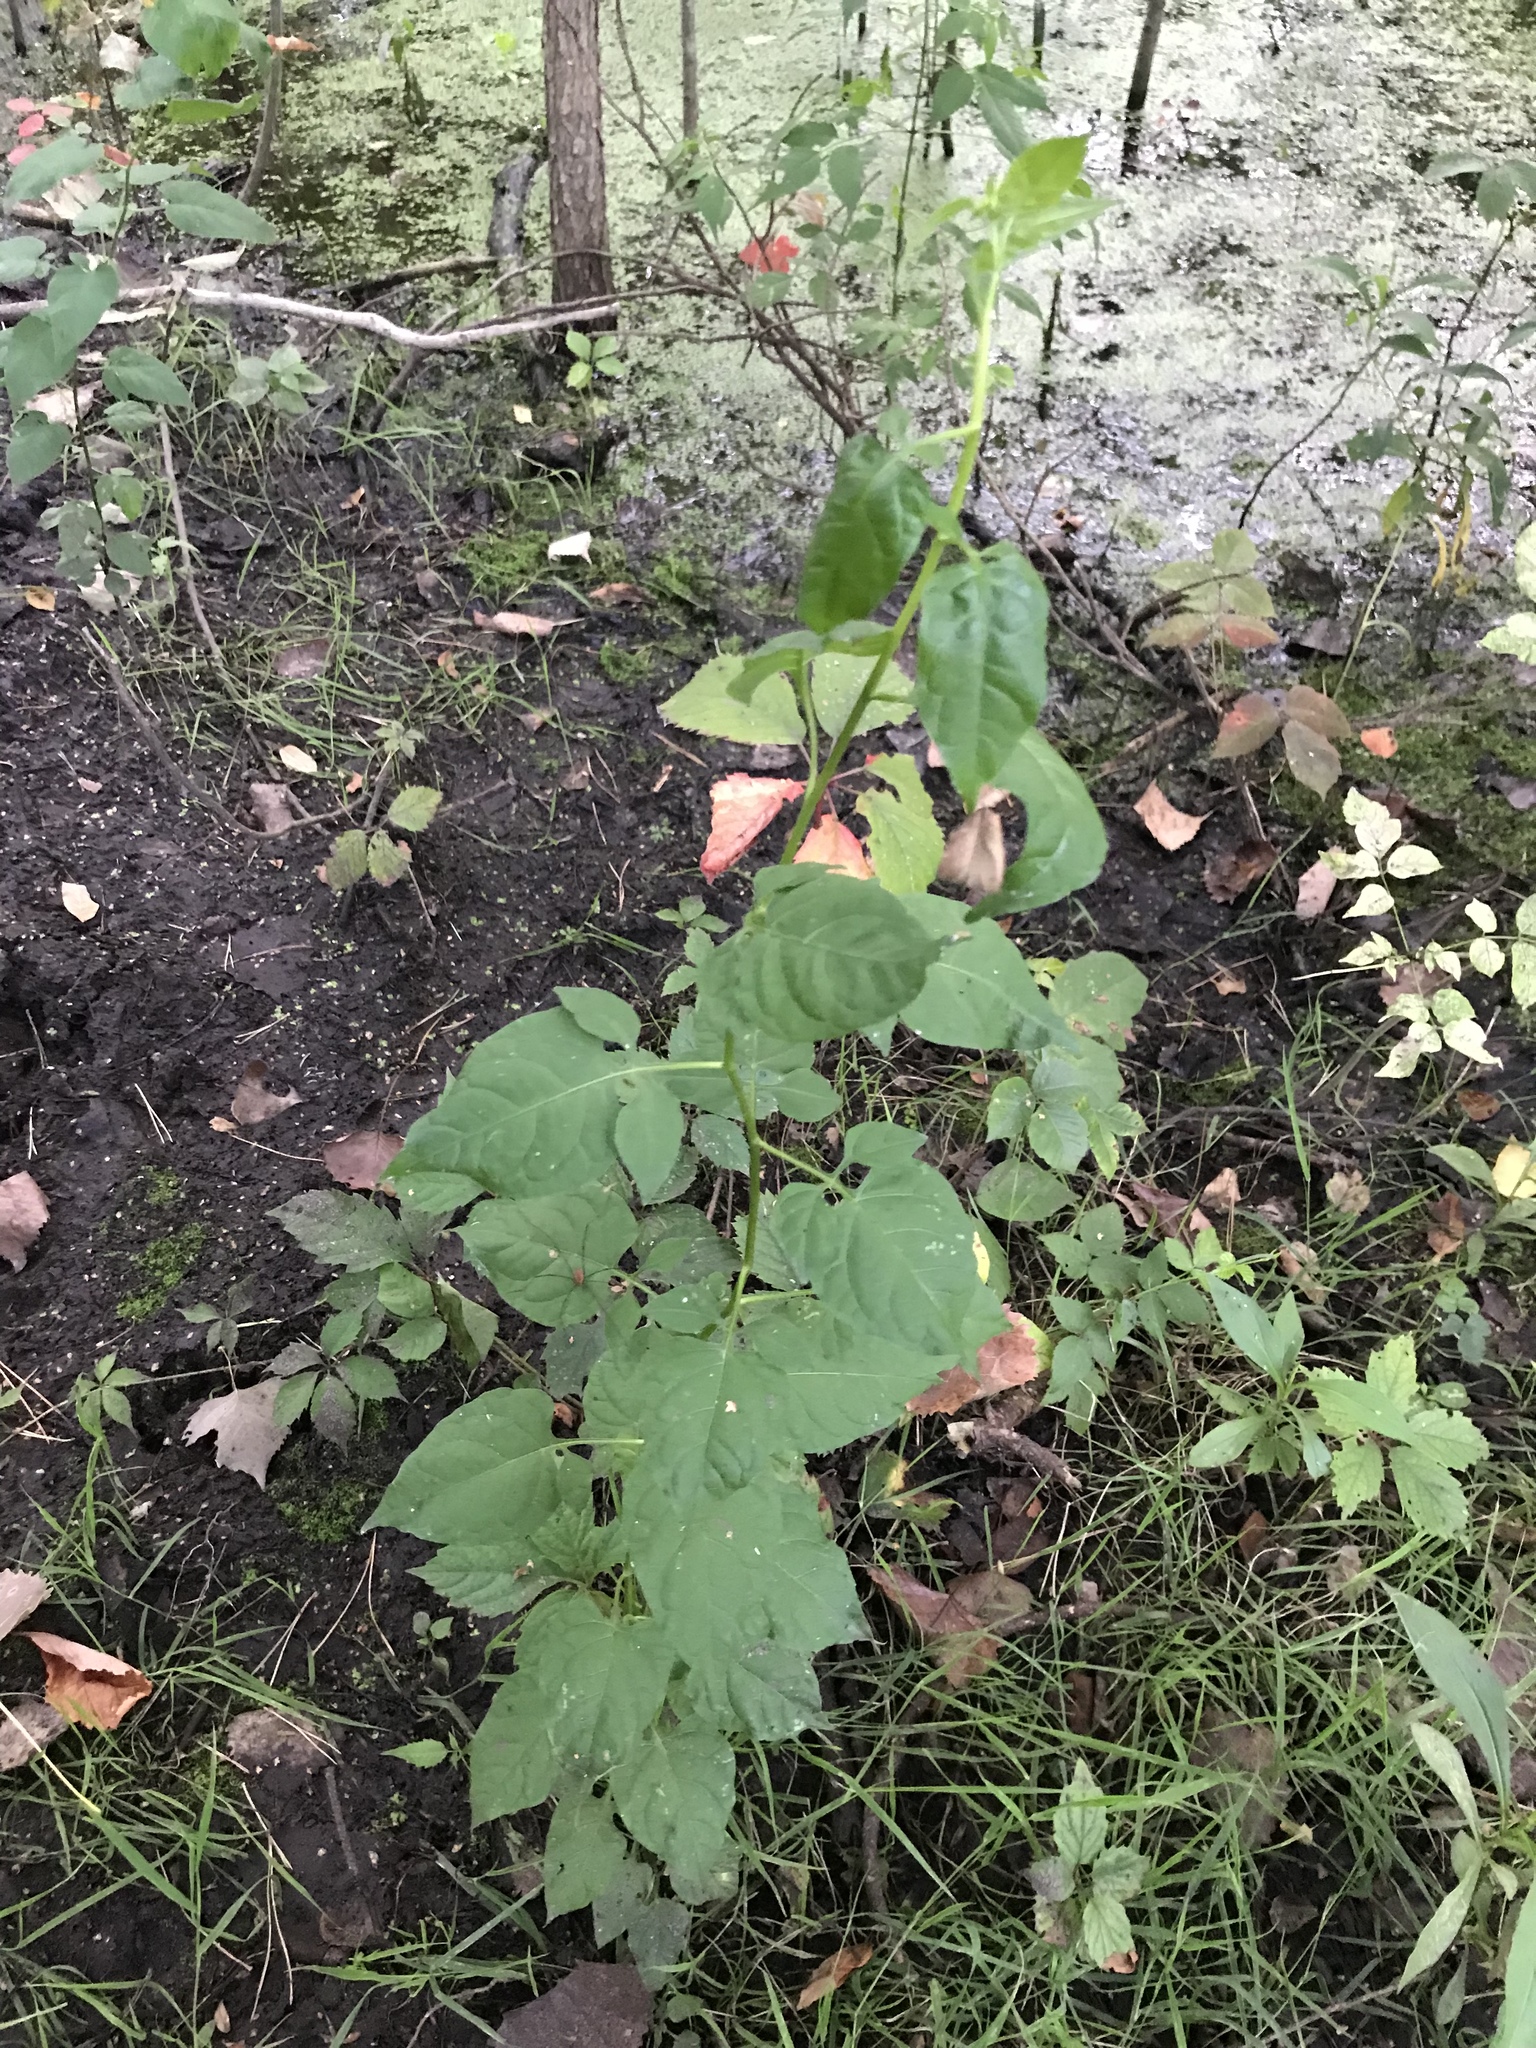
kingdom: Plantae
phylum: Tracheophyta
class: Magnoliopsida
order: Solanales
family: Solanaceae
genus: Solanum
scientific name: Solanum dulcamara
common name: Climbing nightshade
